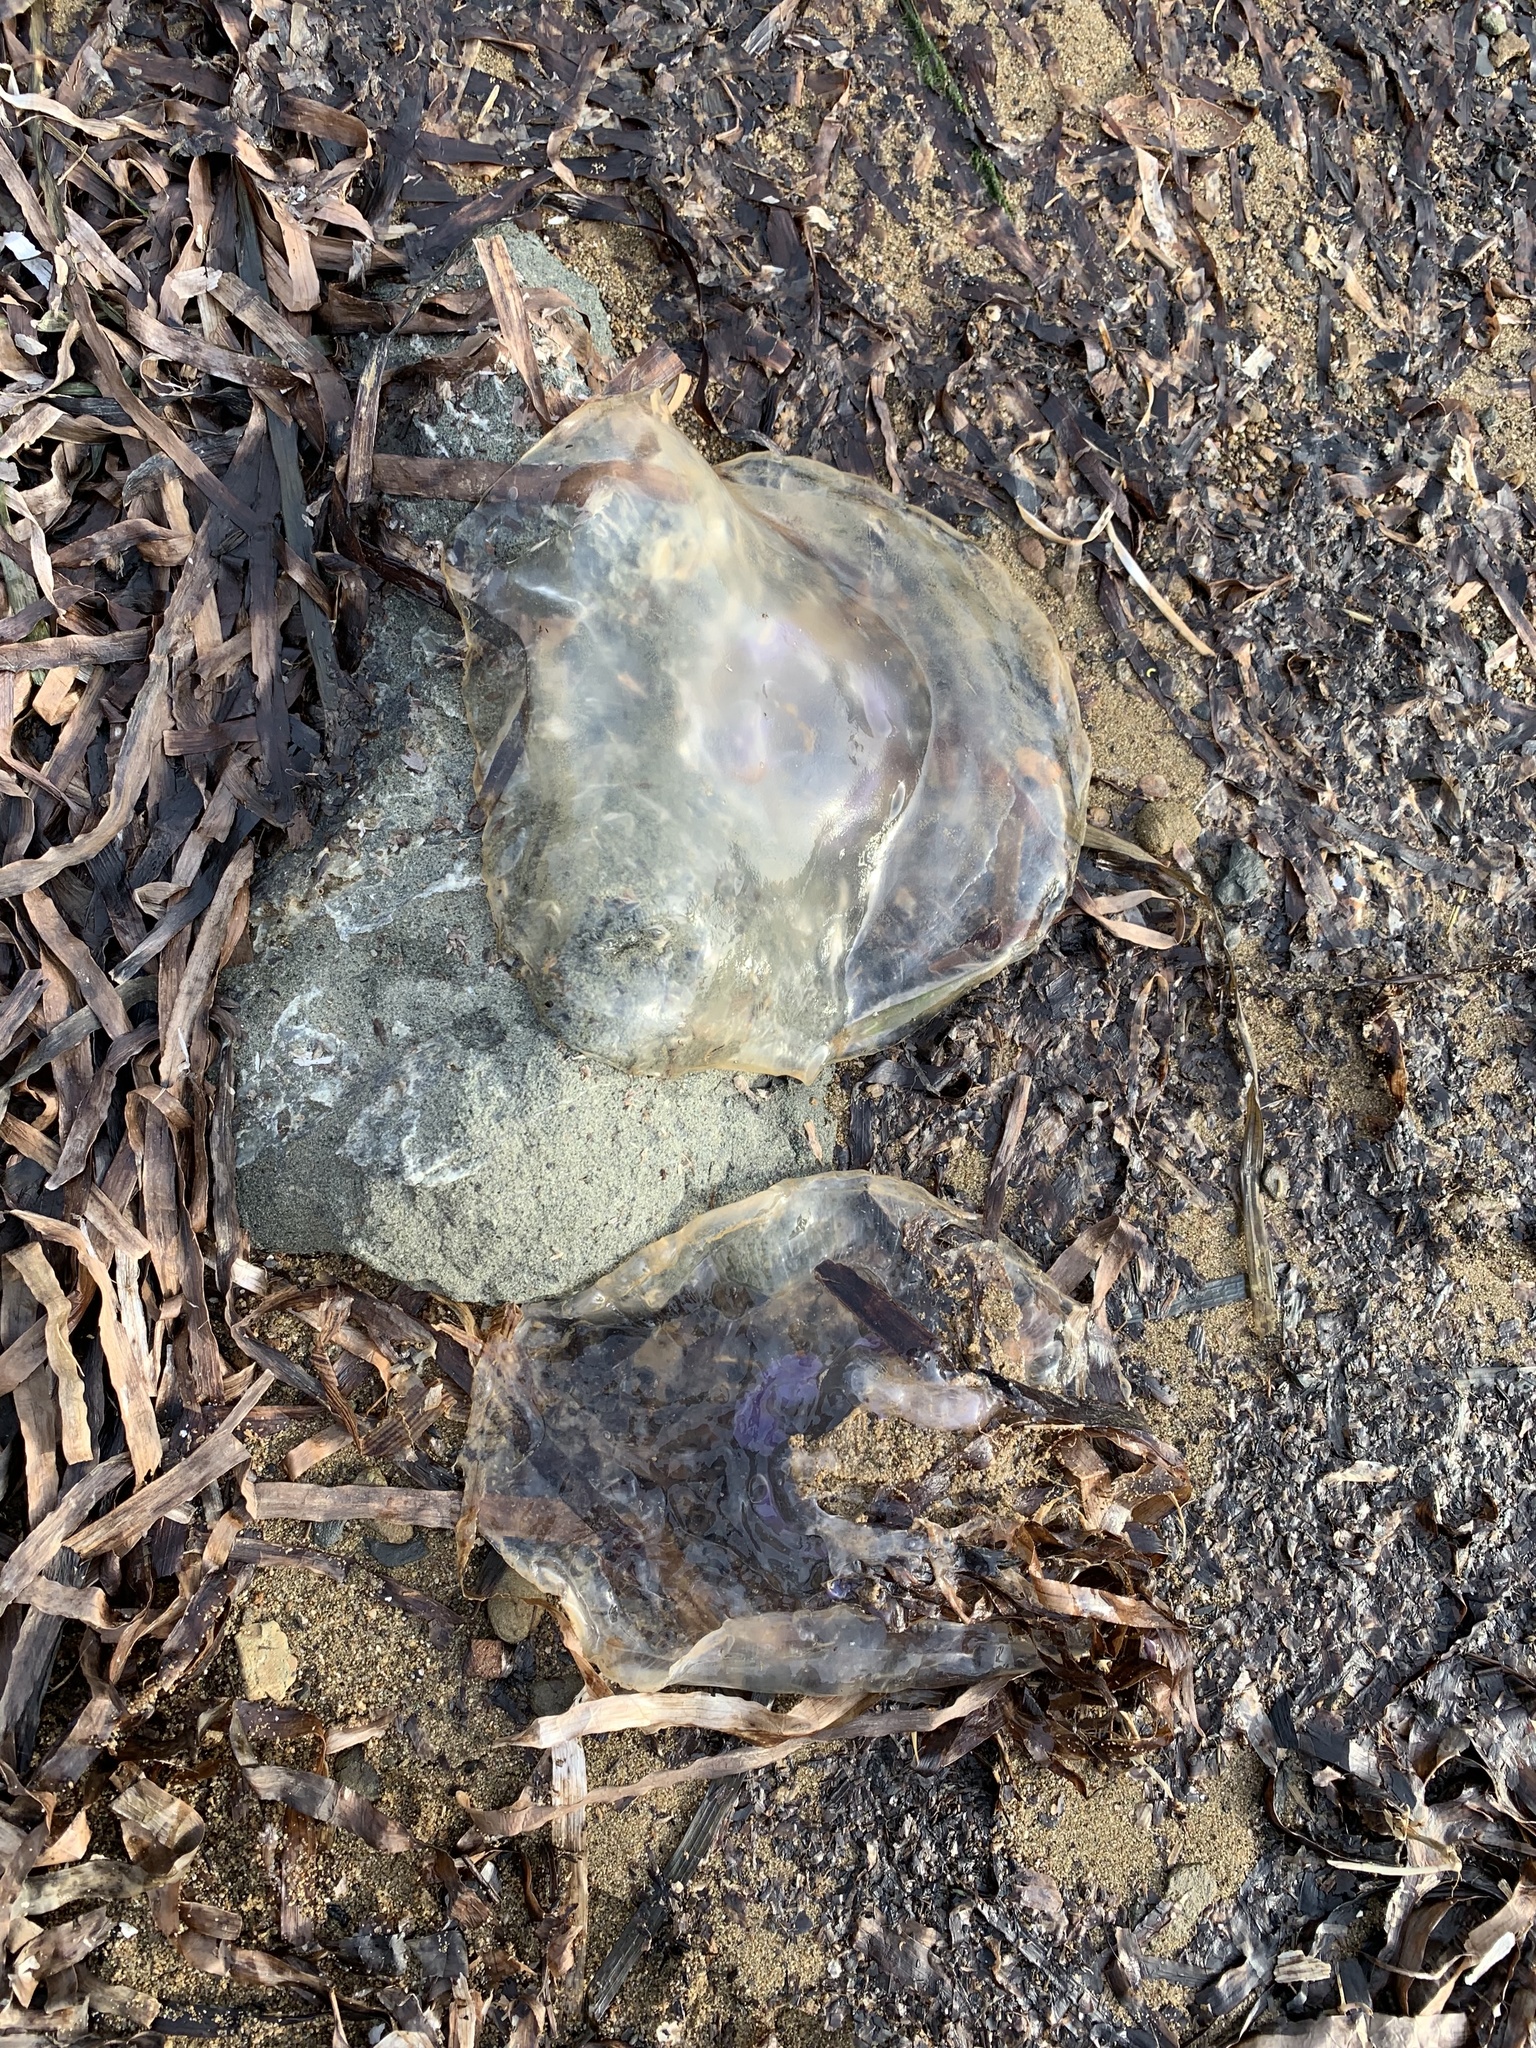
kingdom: Animalia
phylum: Cnidaria
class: Scyphozoa
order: Semaeostomeae
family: Ulmaridae
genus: Aurelia
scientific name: Aurelia labiata
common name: Pacific moon jelly
